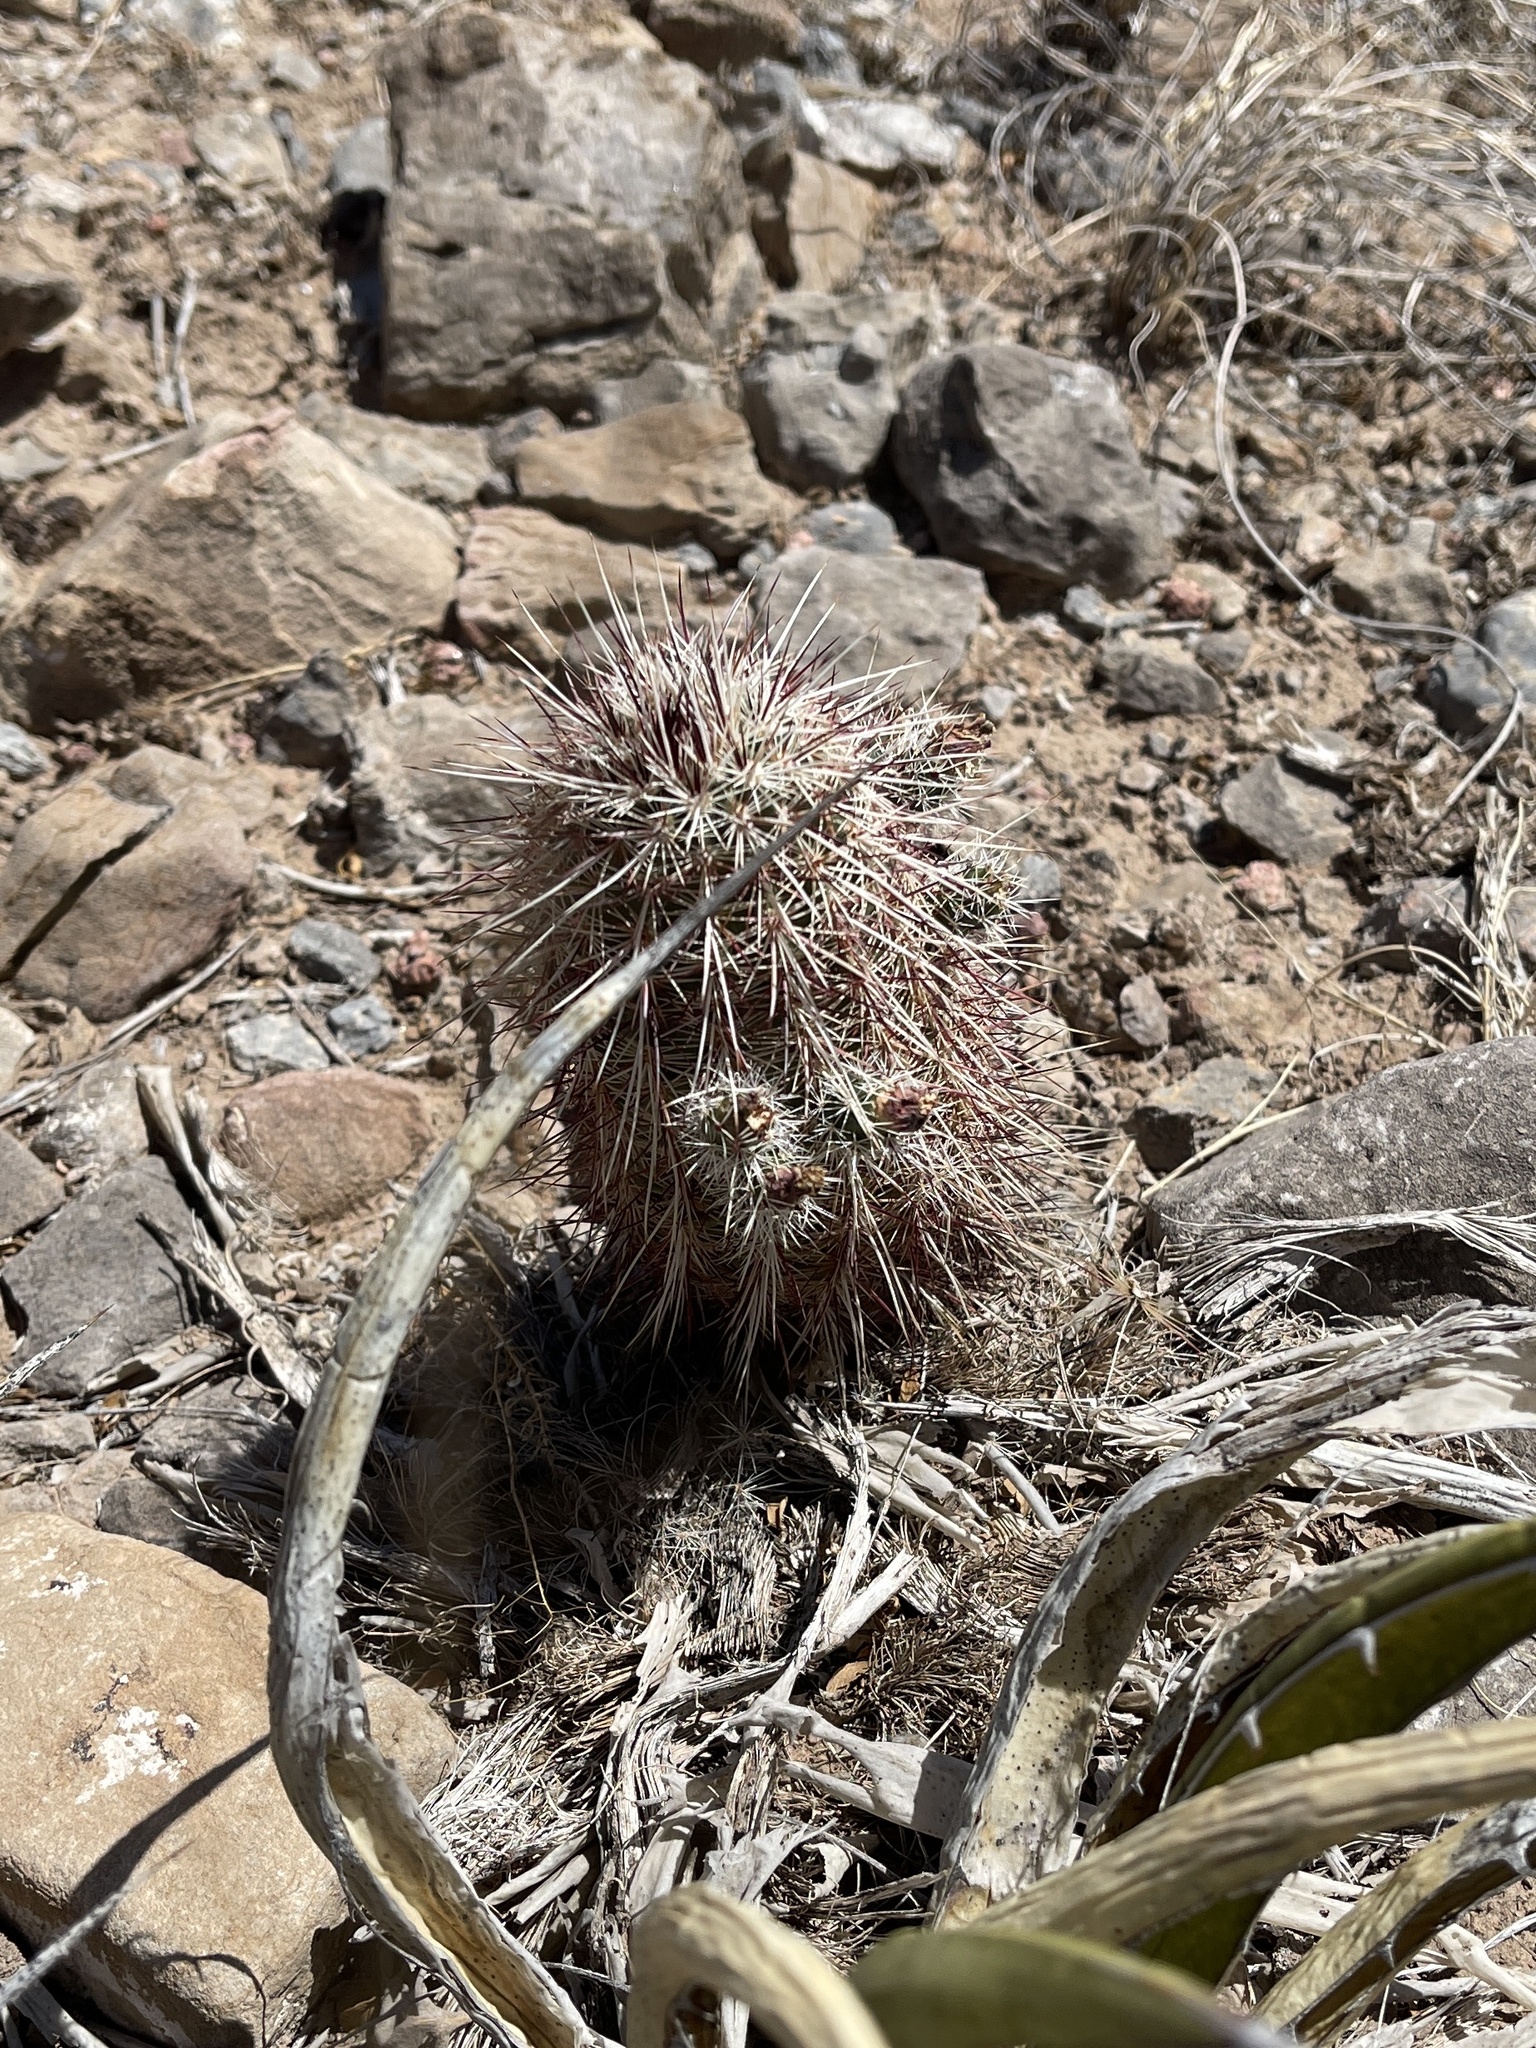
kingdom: Plantae
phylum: Tracheophyta
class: Magnoliopsida
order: Caryophyllales
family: Cactaceae
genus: Echinocereus
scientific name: Echinocereus viridiflorus
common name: Nylon hedgehog cactus
